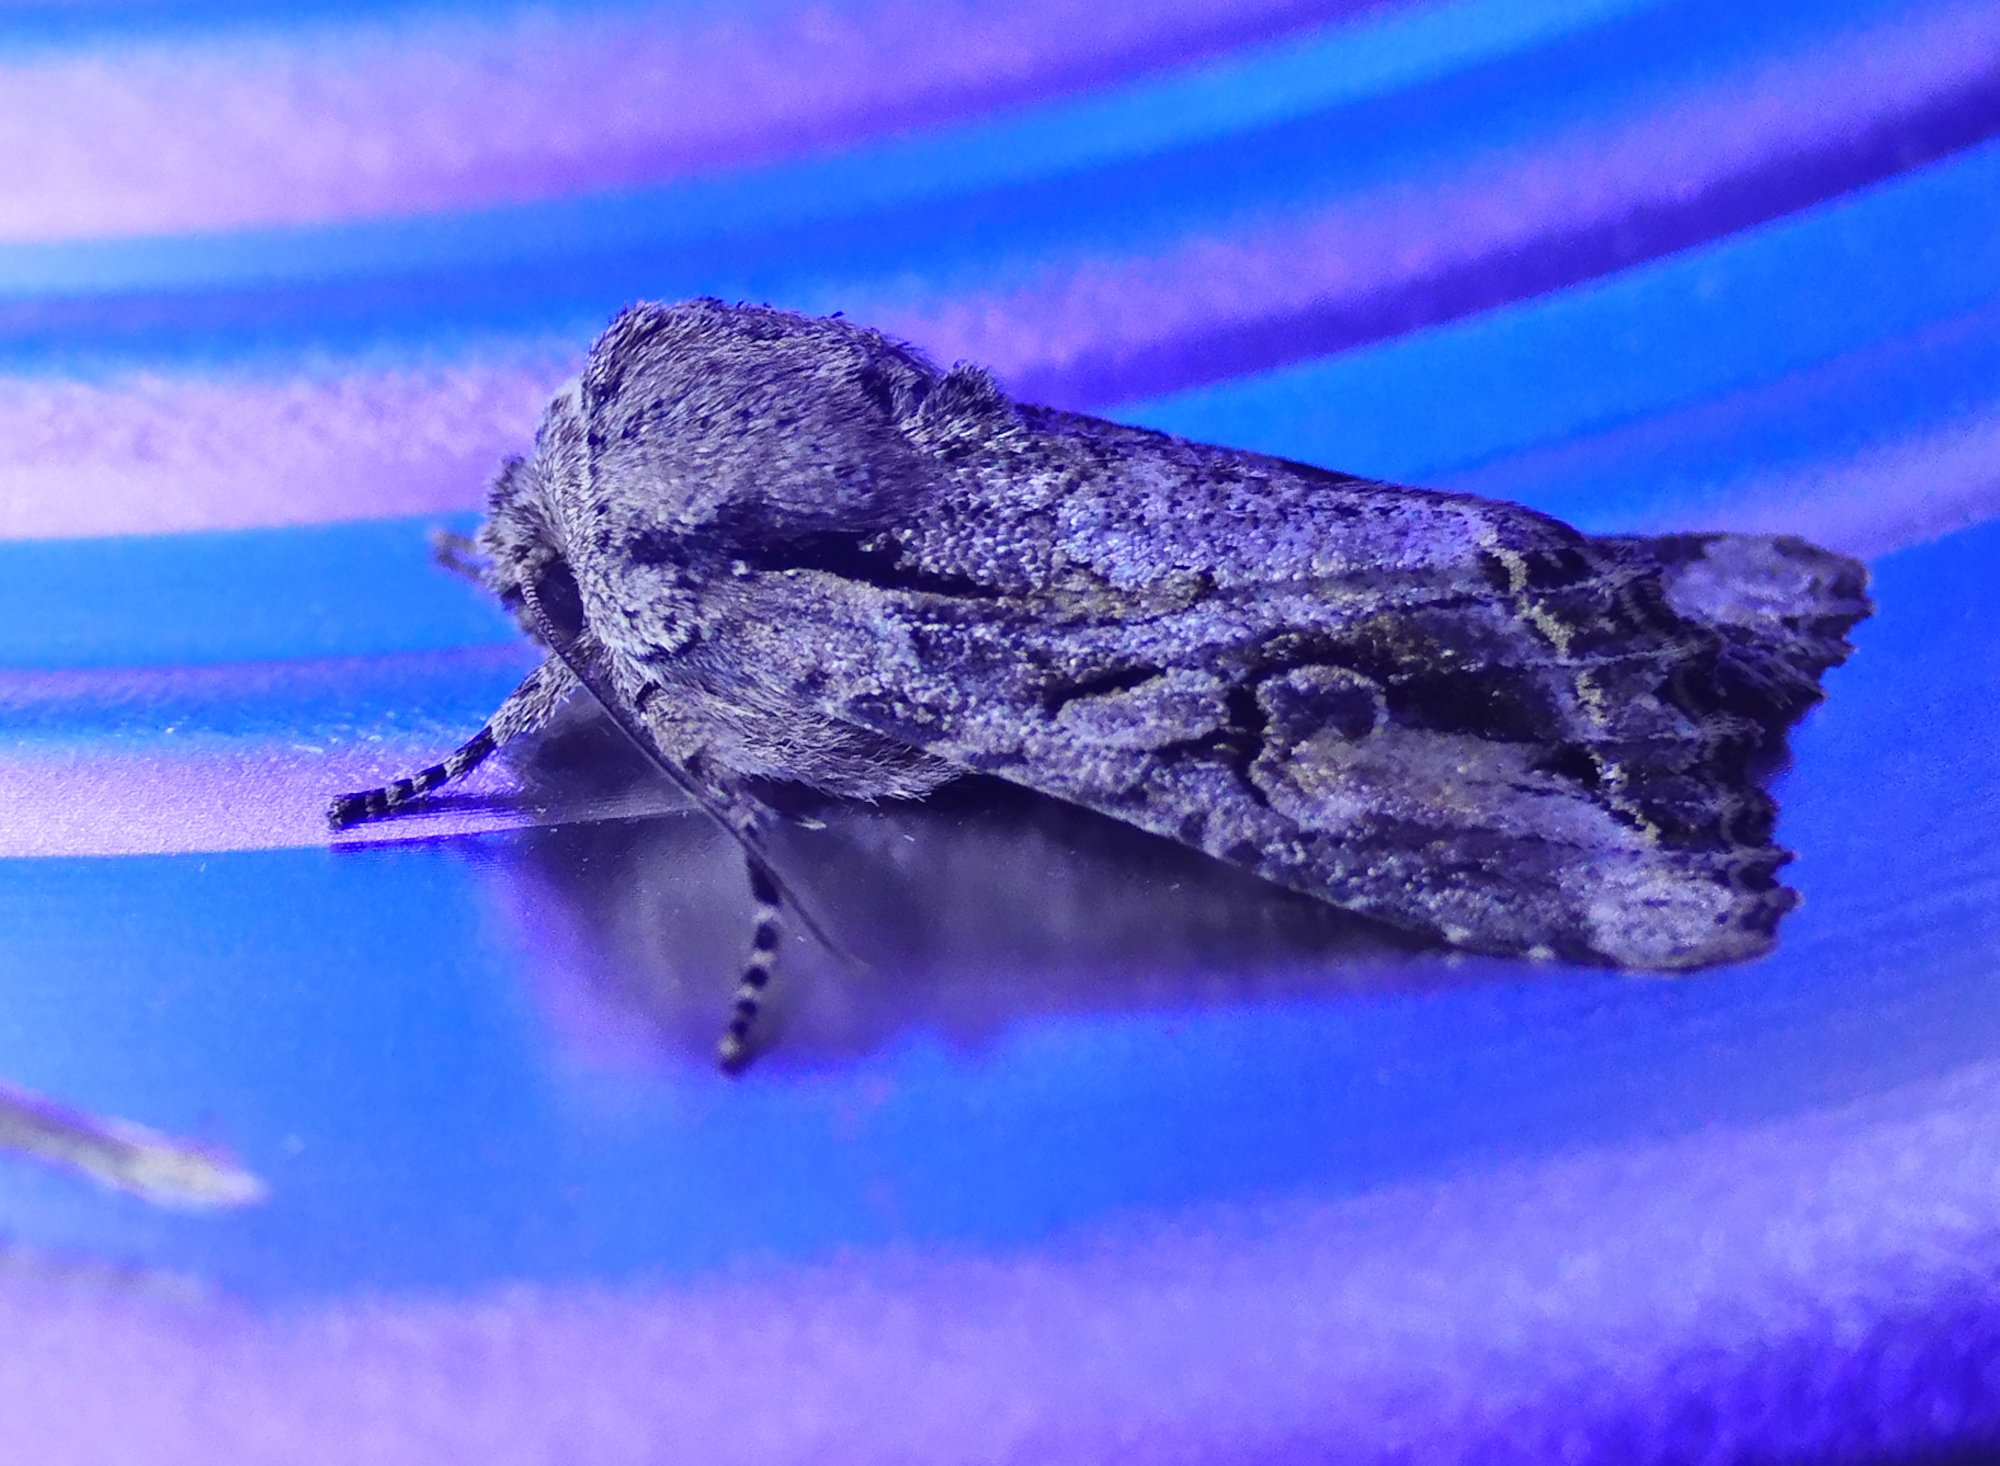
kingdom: Animalia
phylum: Arthropoda
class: Insecta
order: Lepidoptera
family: Noctuidae
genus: Egira
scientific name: Egira rubrica
